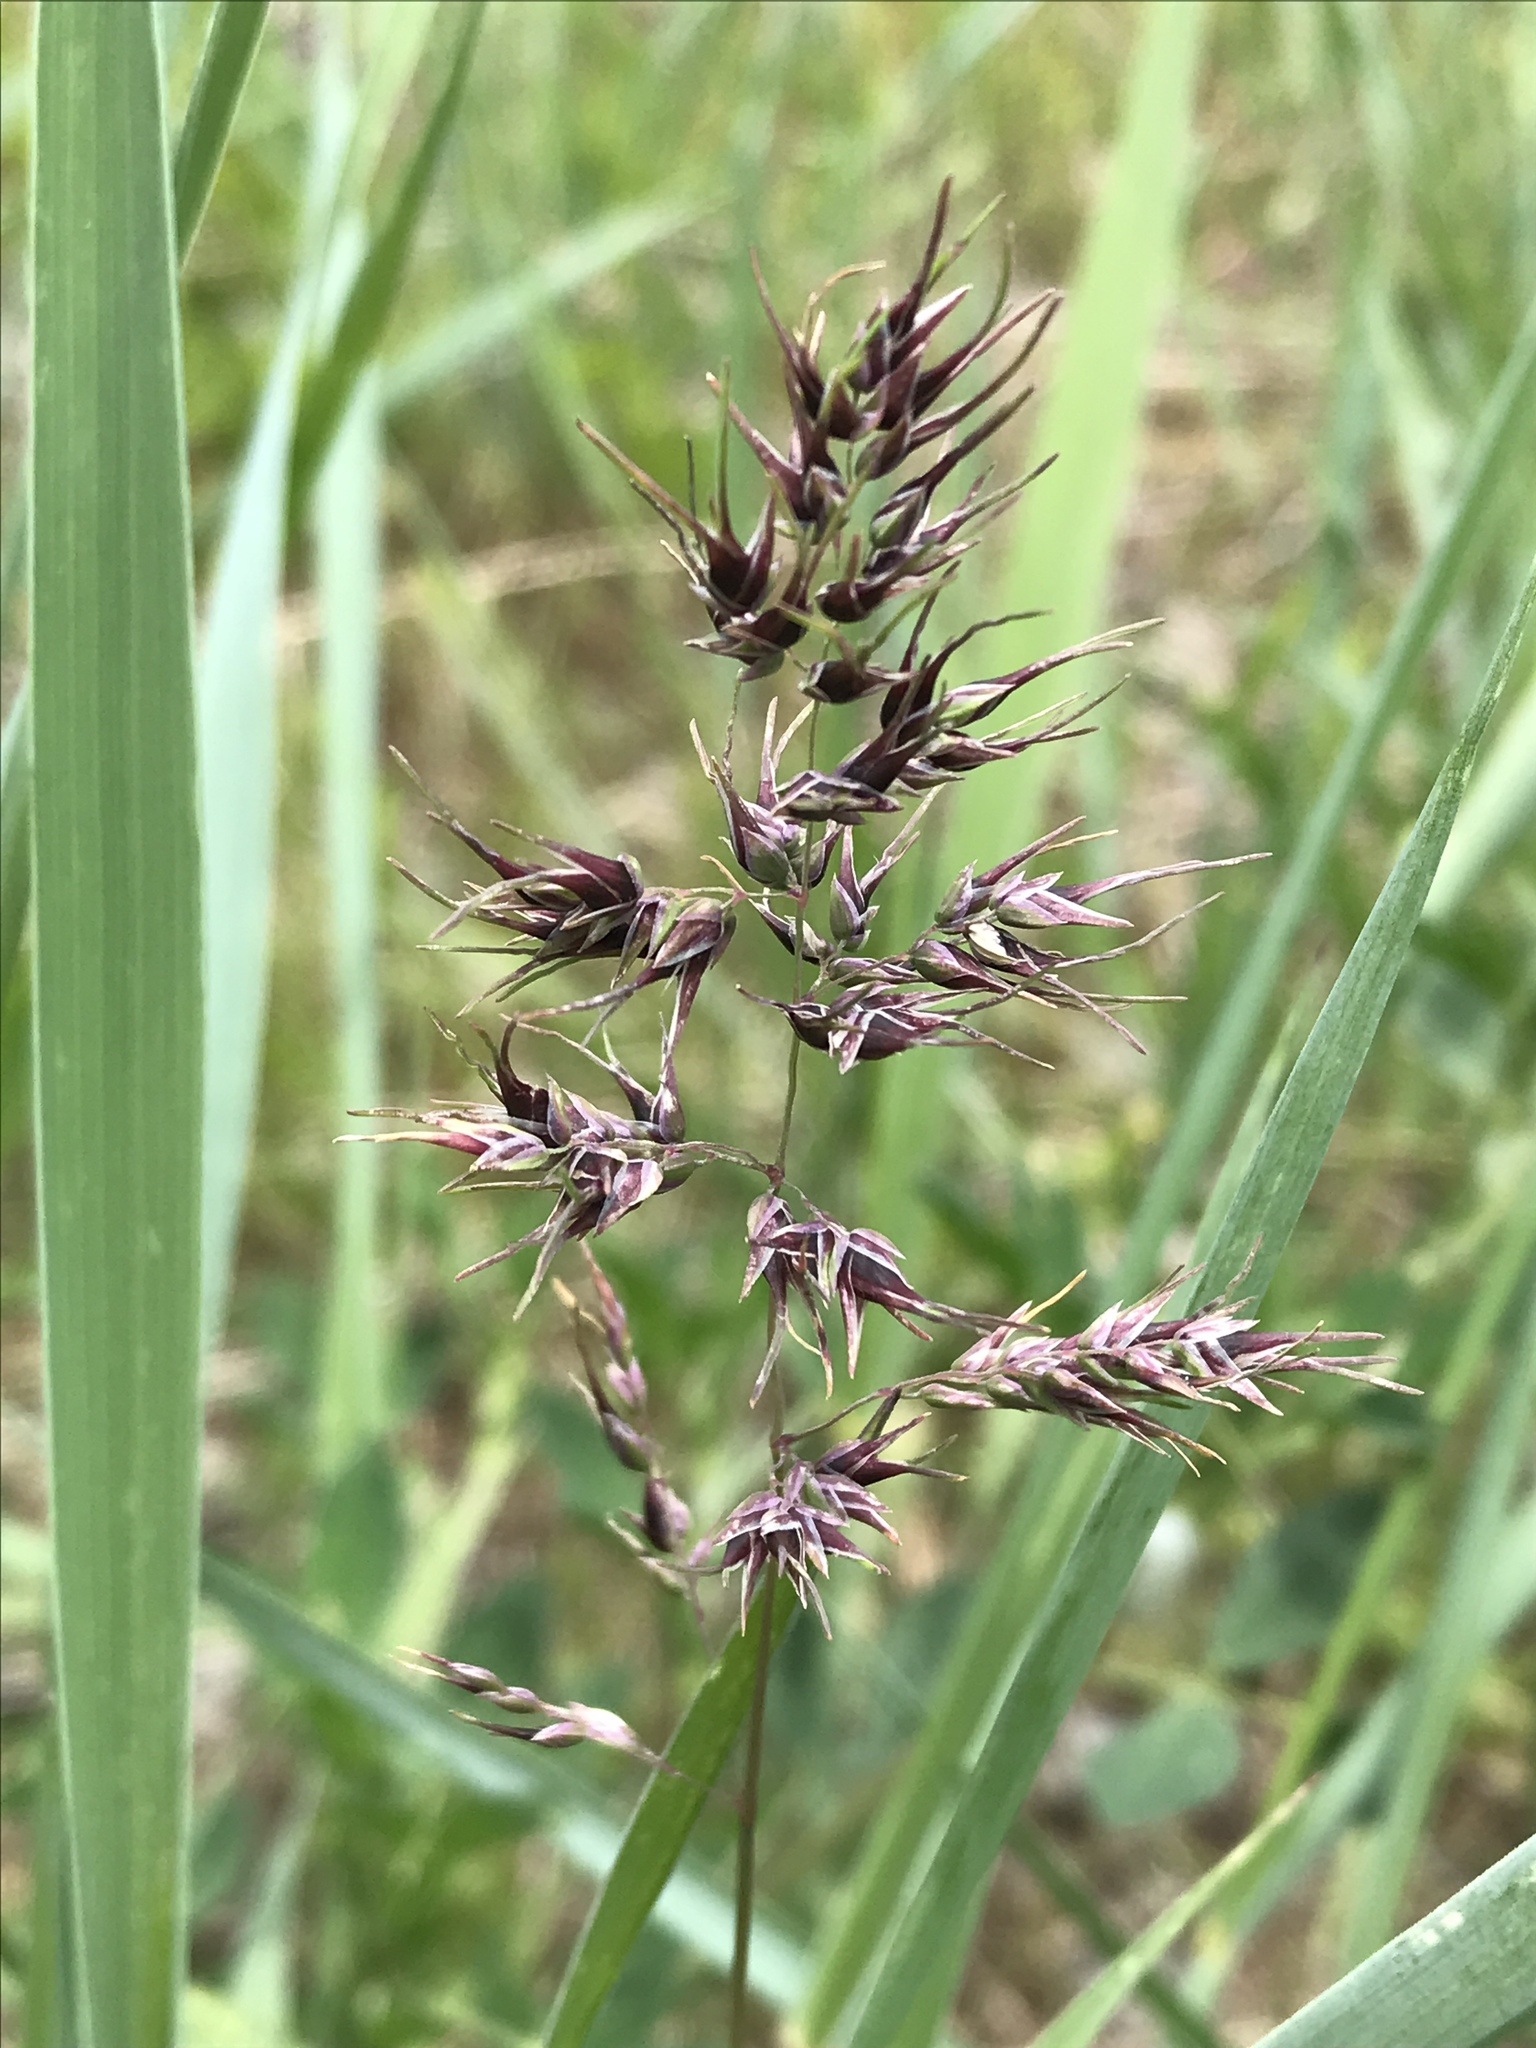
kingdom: Plantae
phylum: Tracheophyta
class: Liliopsida
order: Poales
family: Poaceae
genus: Poa
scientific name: Poa bulbosa
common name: Bulbous bluegrass
